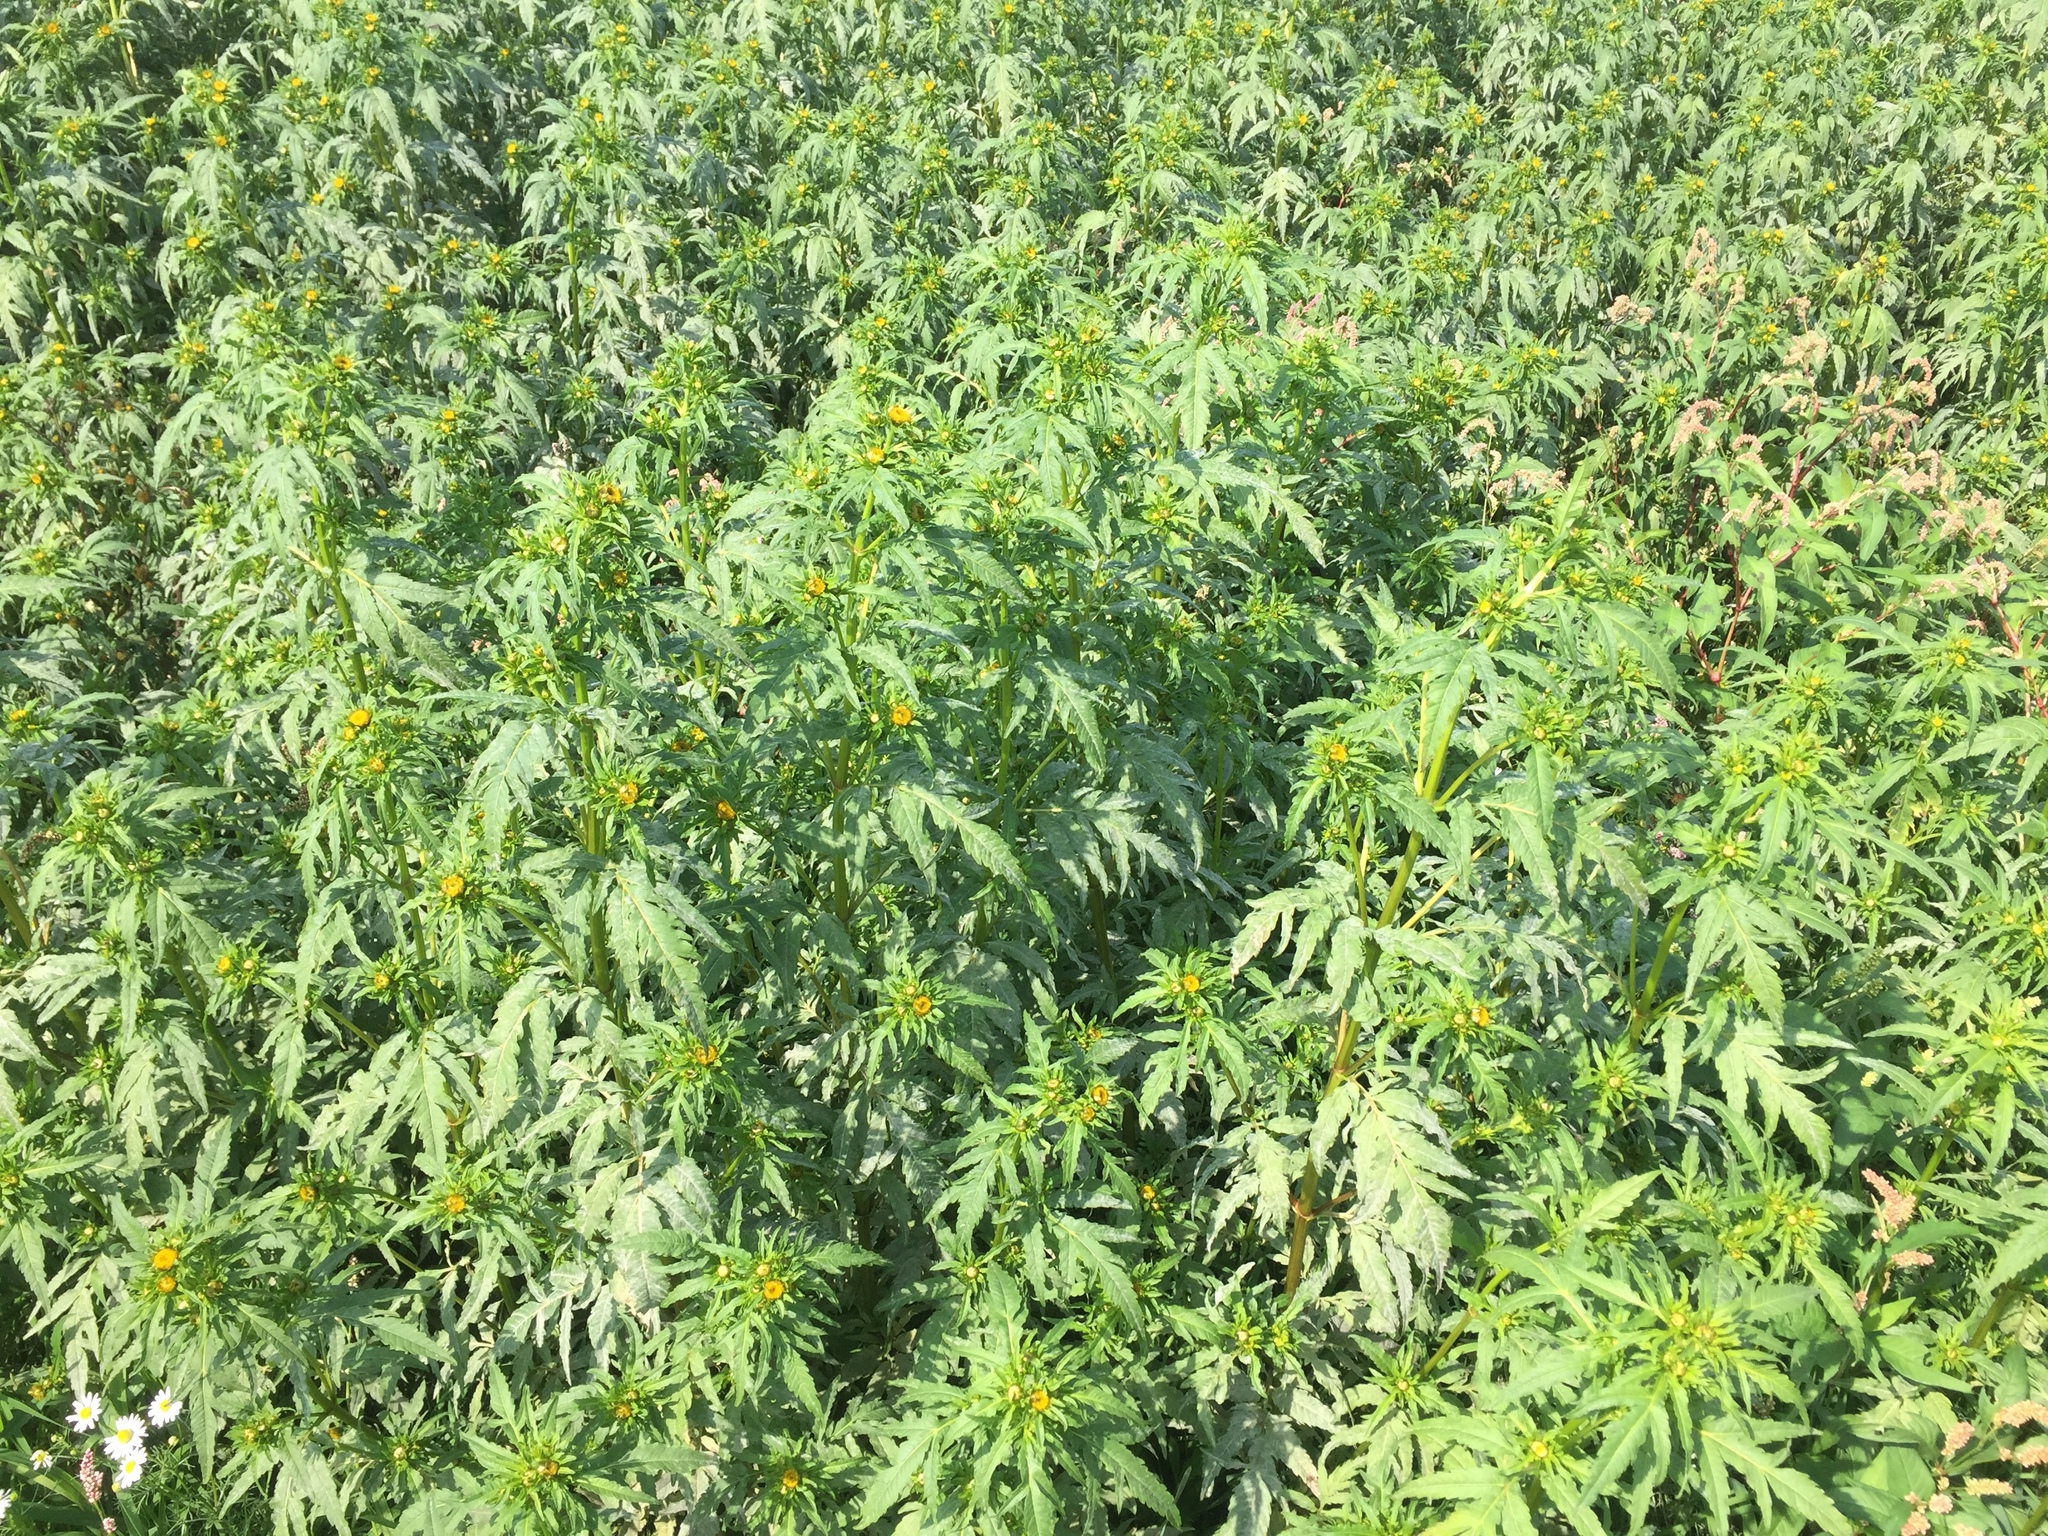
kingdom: Plantae
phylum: Tracheophyta
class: Magnoliopsida
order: Asterales
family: Asteraceae
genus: Bidens
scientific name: Bidens radiata
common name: Radiating bur-marigold
